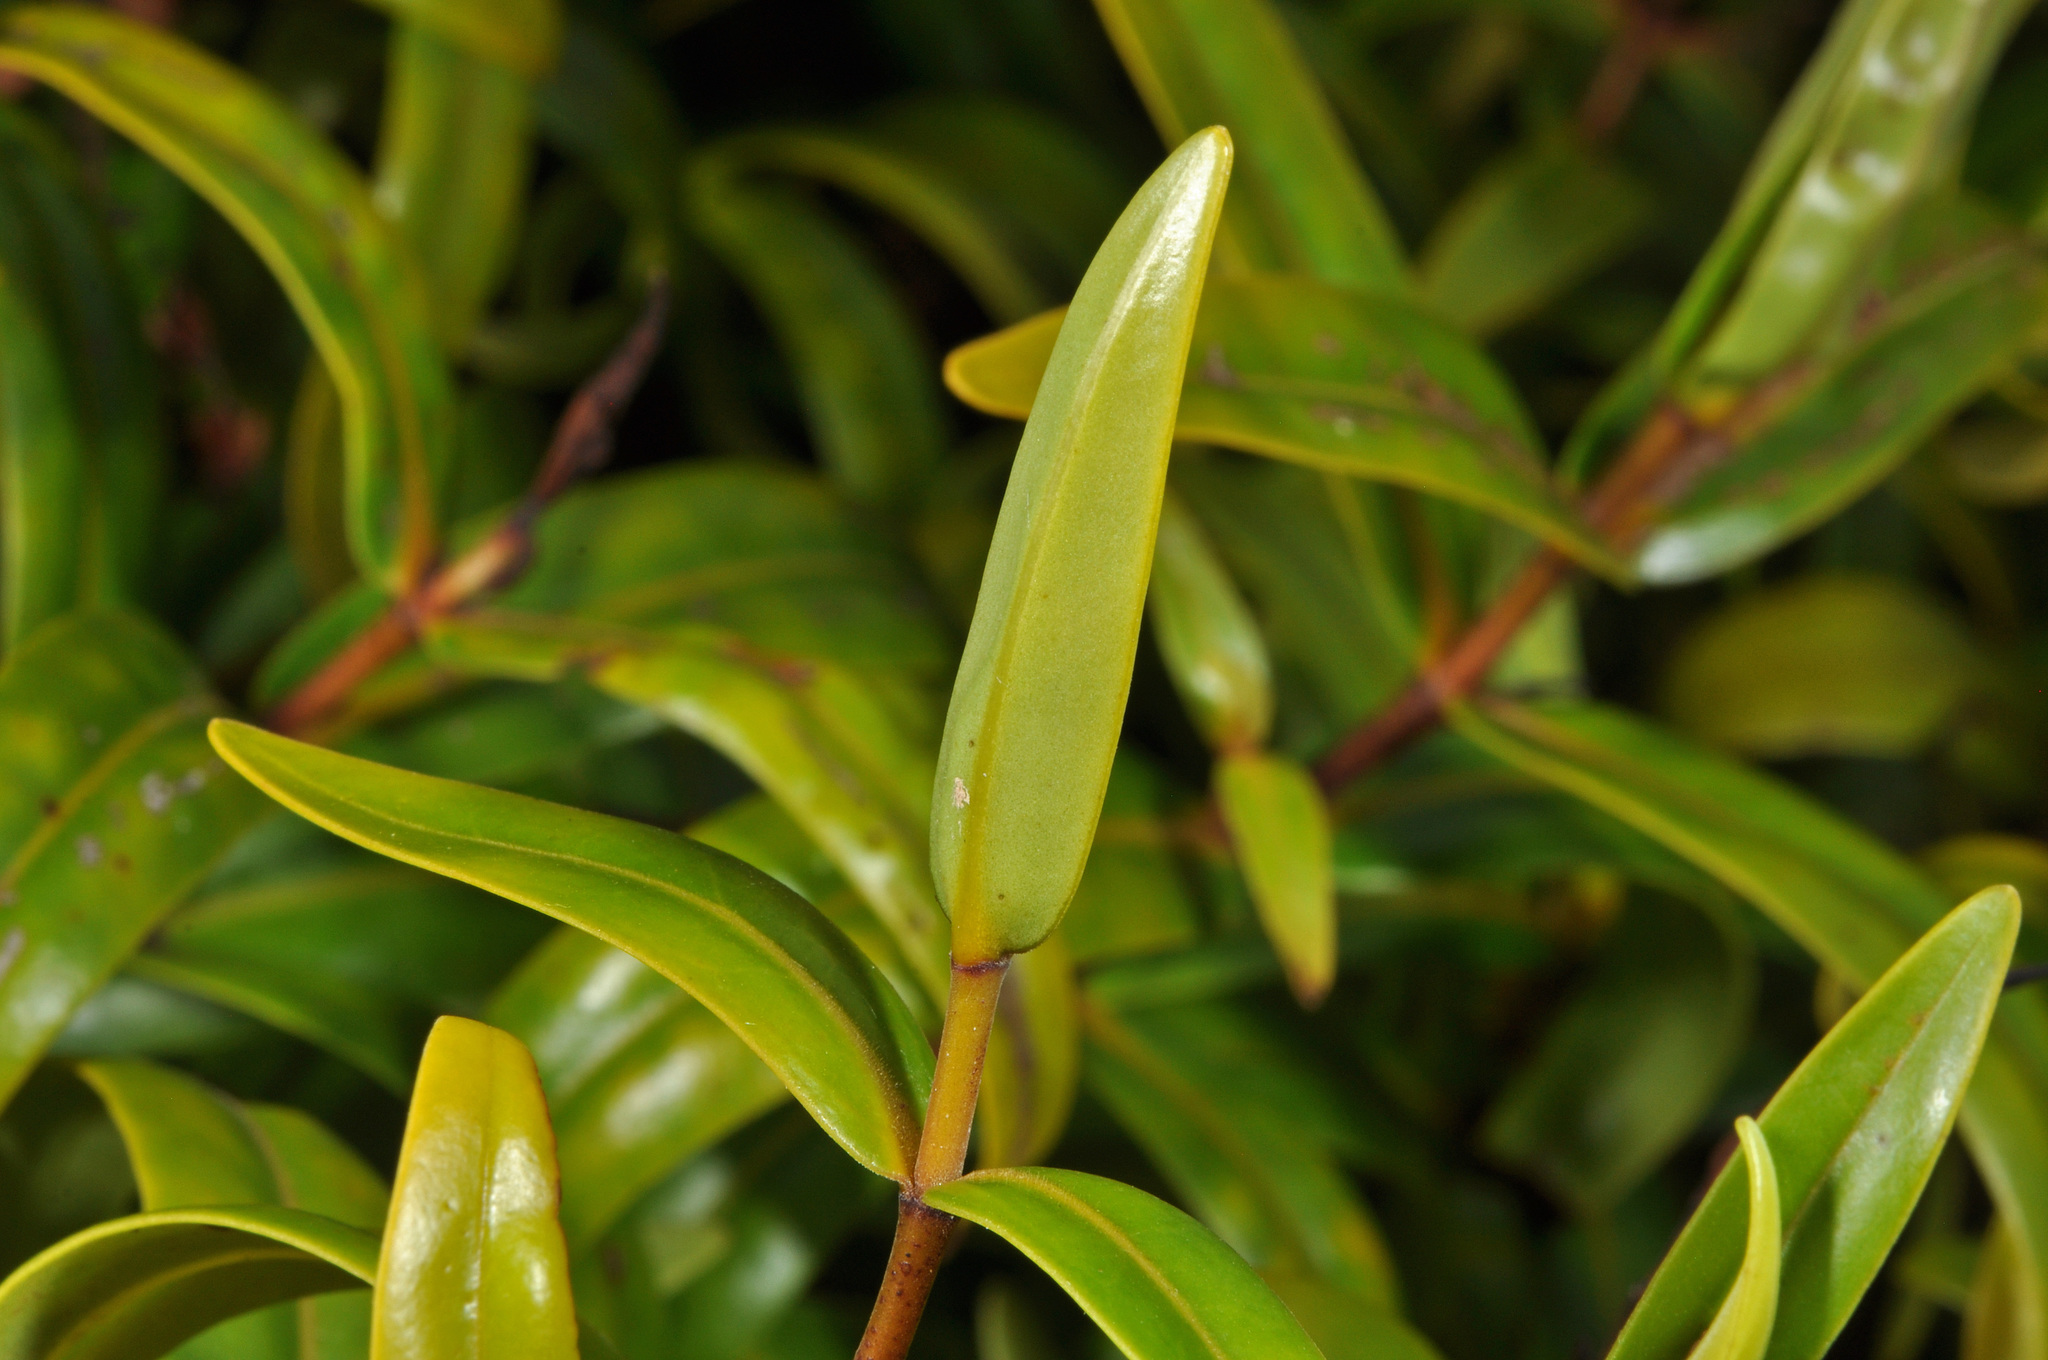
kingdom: Plantae
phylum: Tracheophyta
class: Magnoliopsida
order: Lamiales
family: Plantaginaceae
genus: Veronica
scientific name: Veronica ligustrifolia
